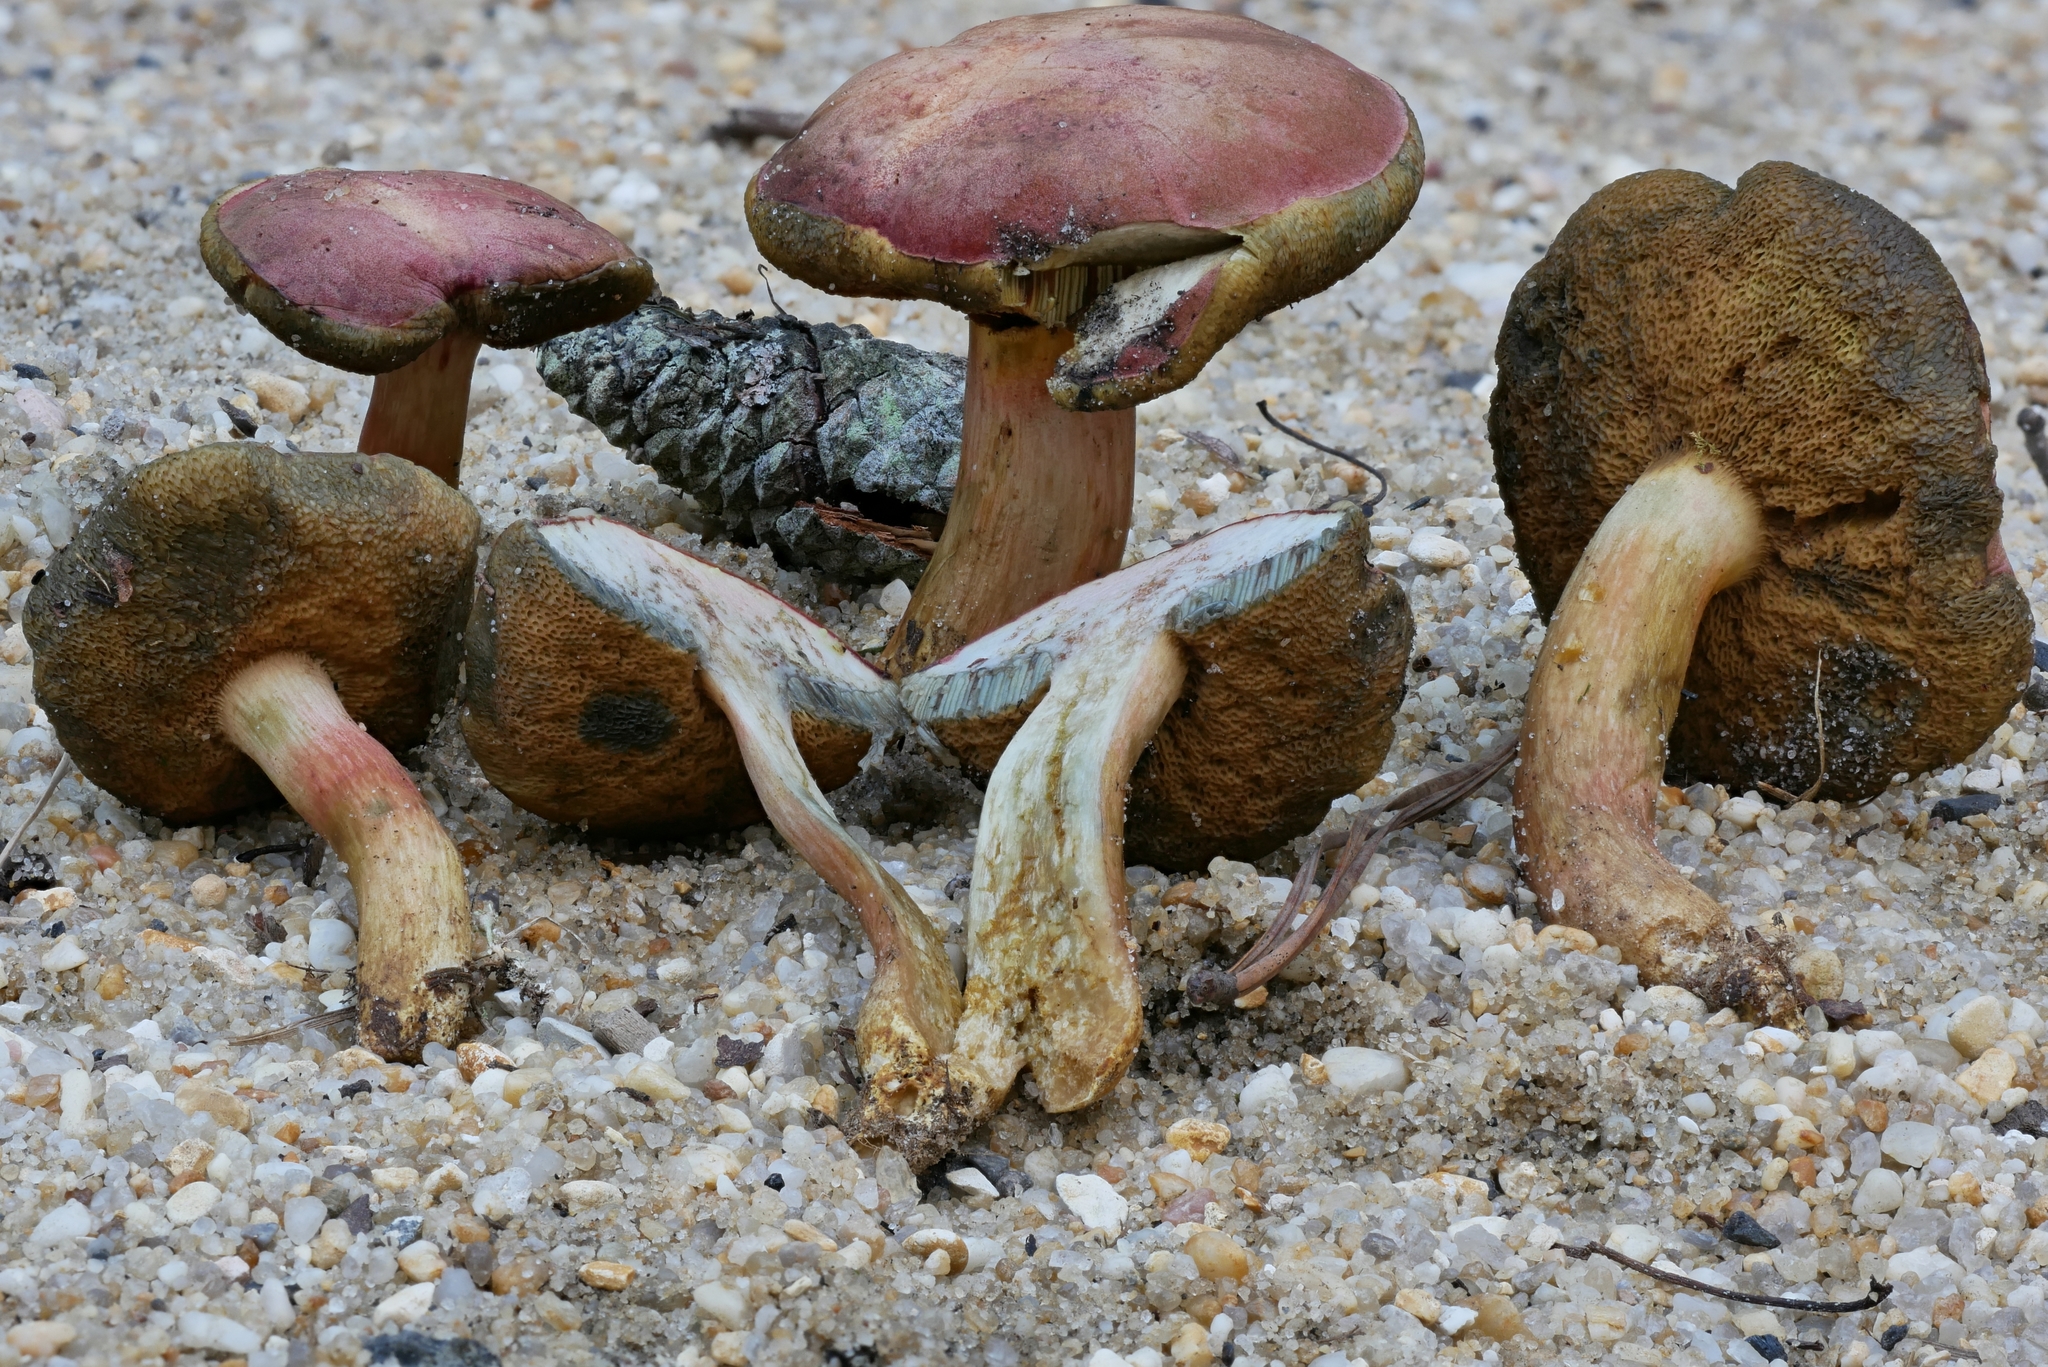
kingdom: Fungi
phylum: Basidiomycota
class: Agaricomycetes
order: Boletales
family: Boletaceae
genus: Boletus
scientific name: Boletus patrioticus
